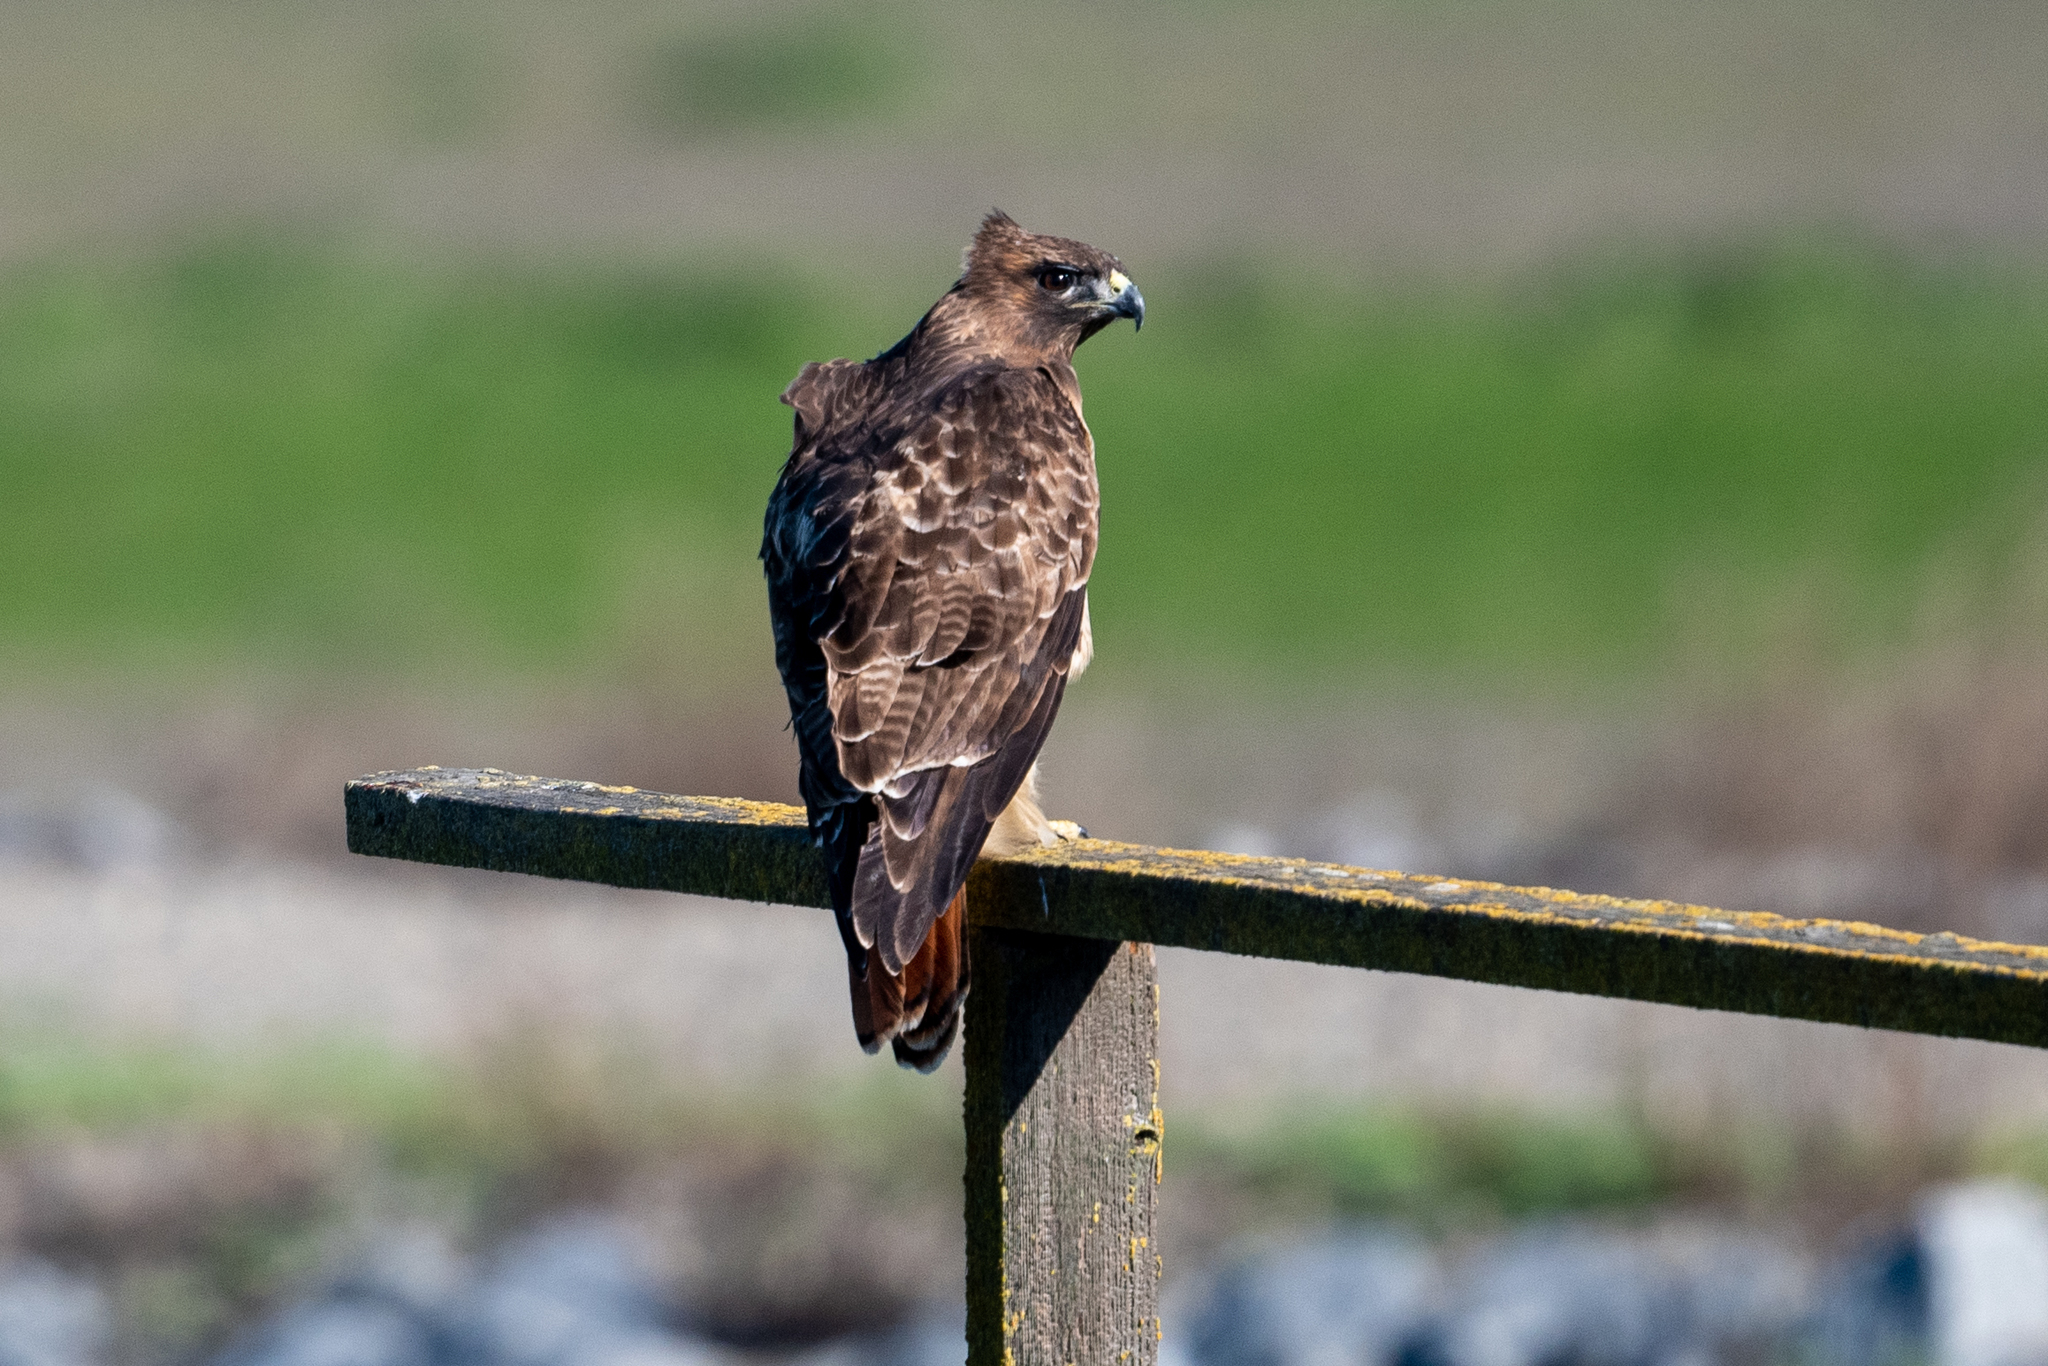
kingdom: Animalia
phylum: Chordata
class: Aves
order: Accipitriformes
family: Accipitridae
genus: Buteo
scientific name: Buteo jamaicensis
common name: Red-tailed hawk
